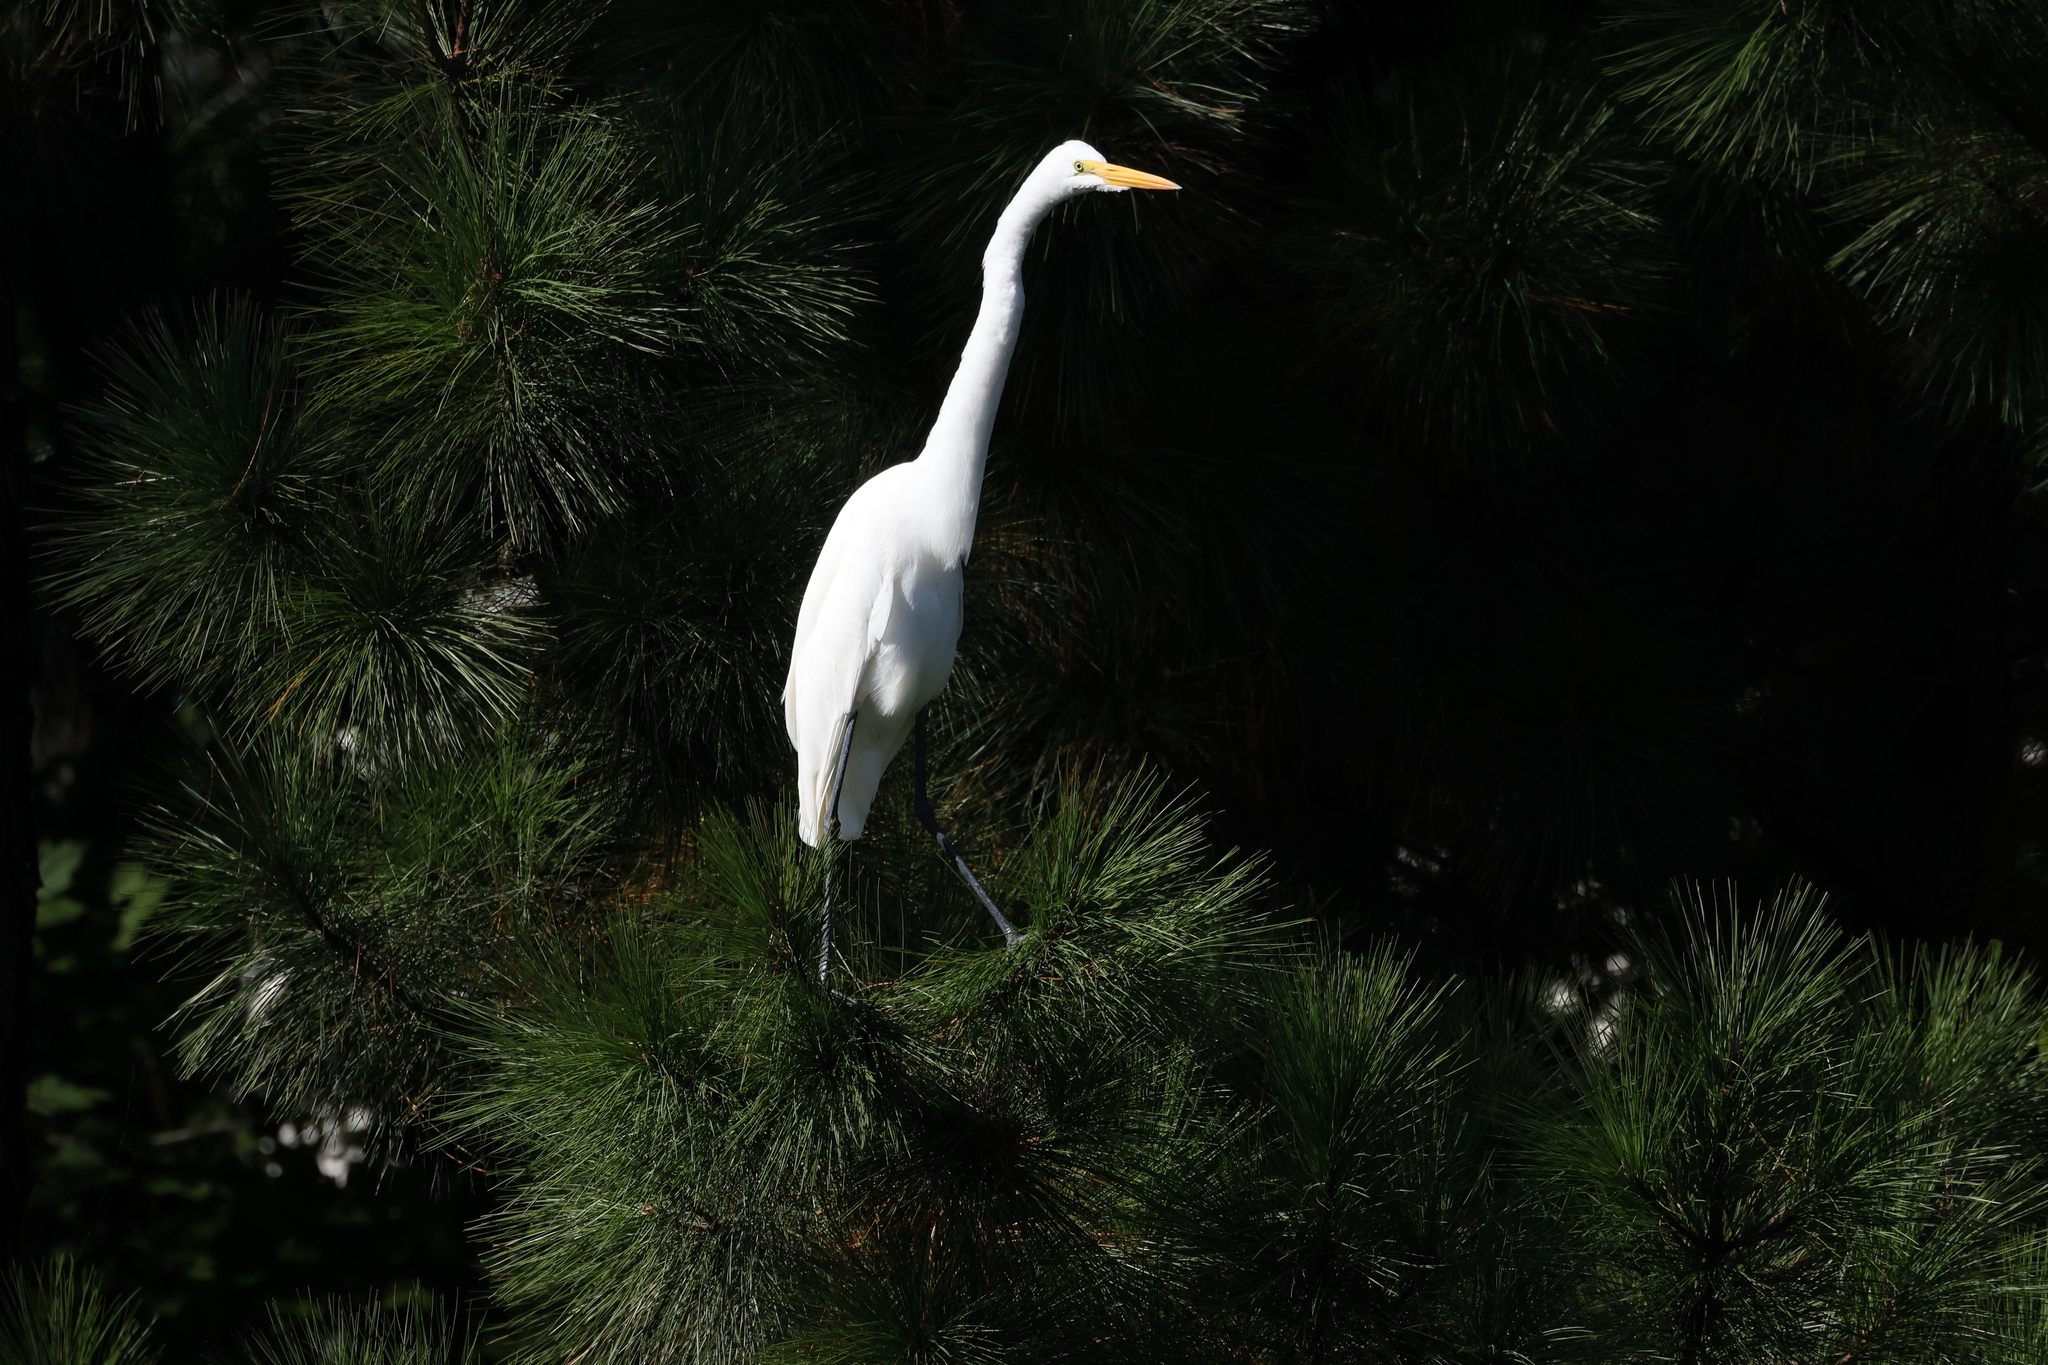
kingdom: Animalia
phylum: Chordata
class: Aves
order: Pelecaniformes
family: Ardeidae
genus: Ardea
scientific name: Ardea alba
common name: Great egret
